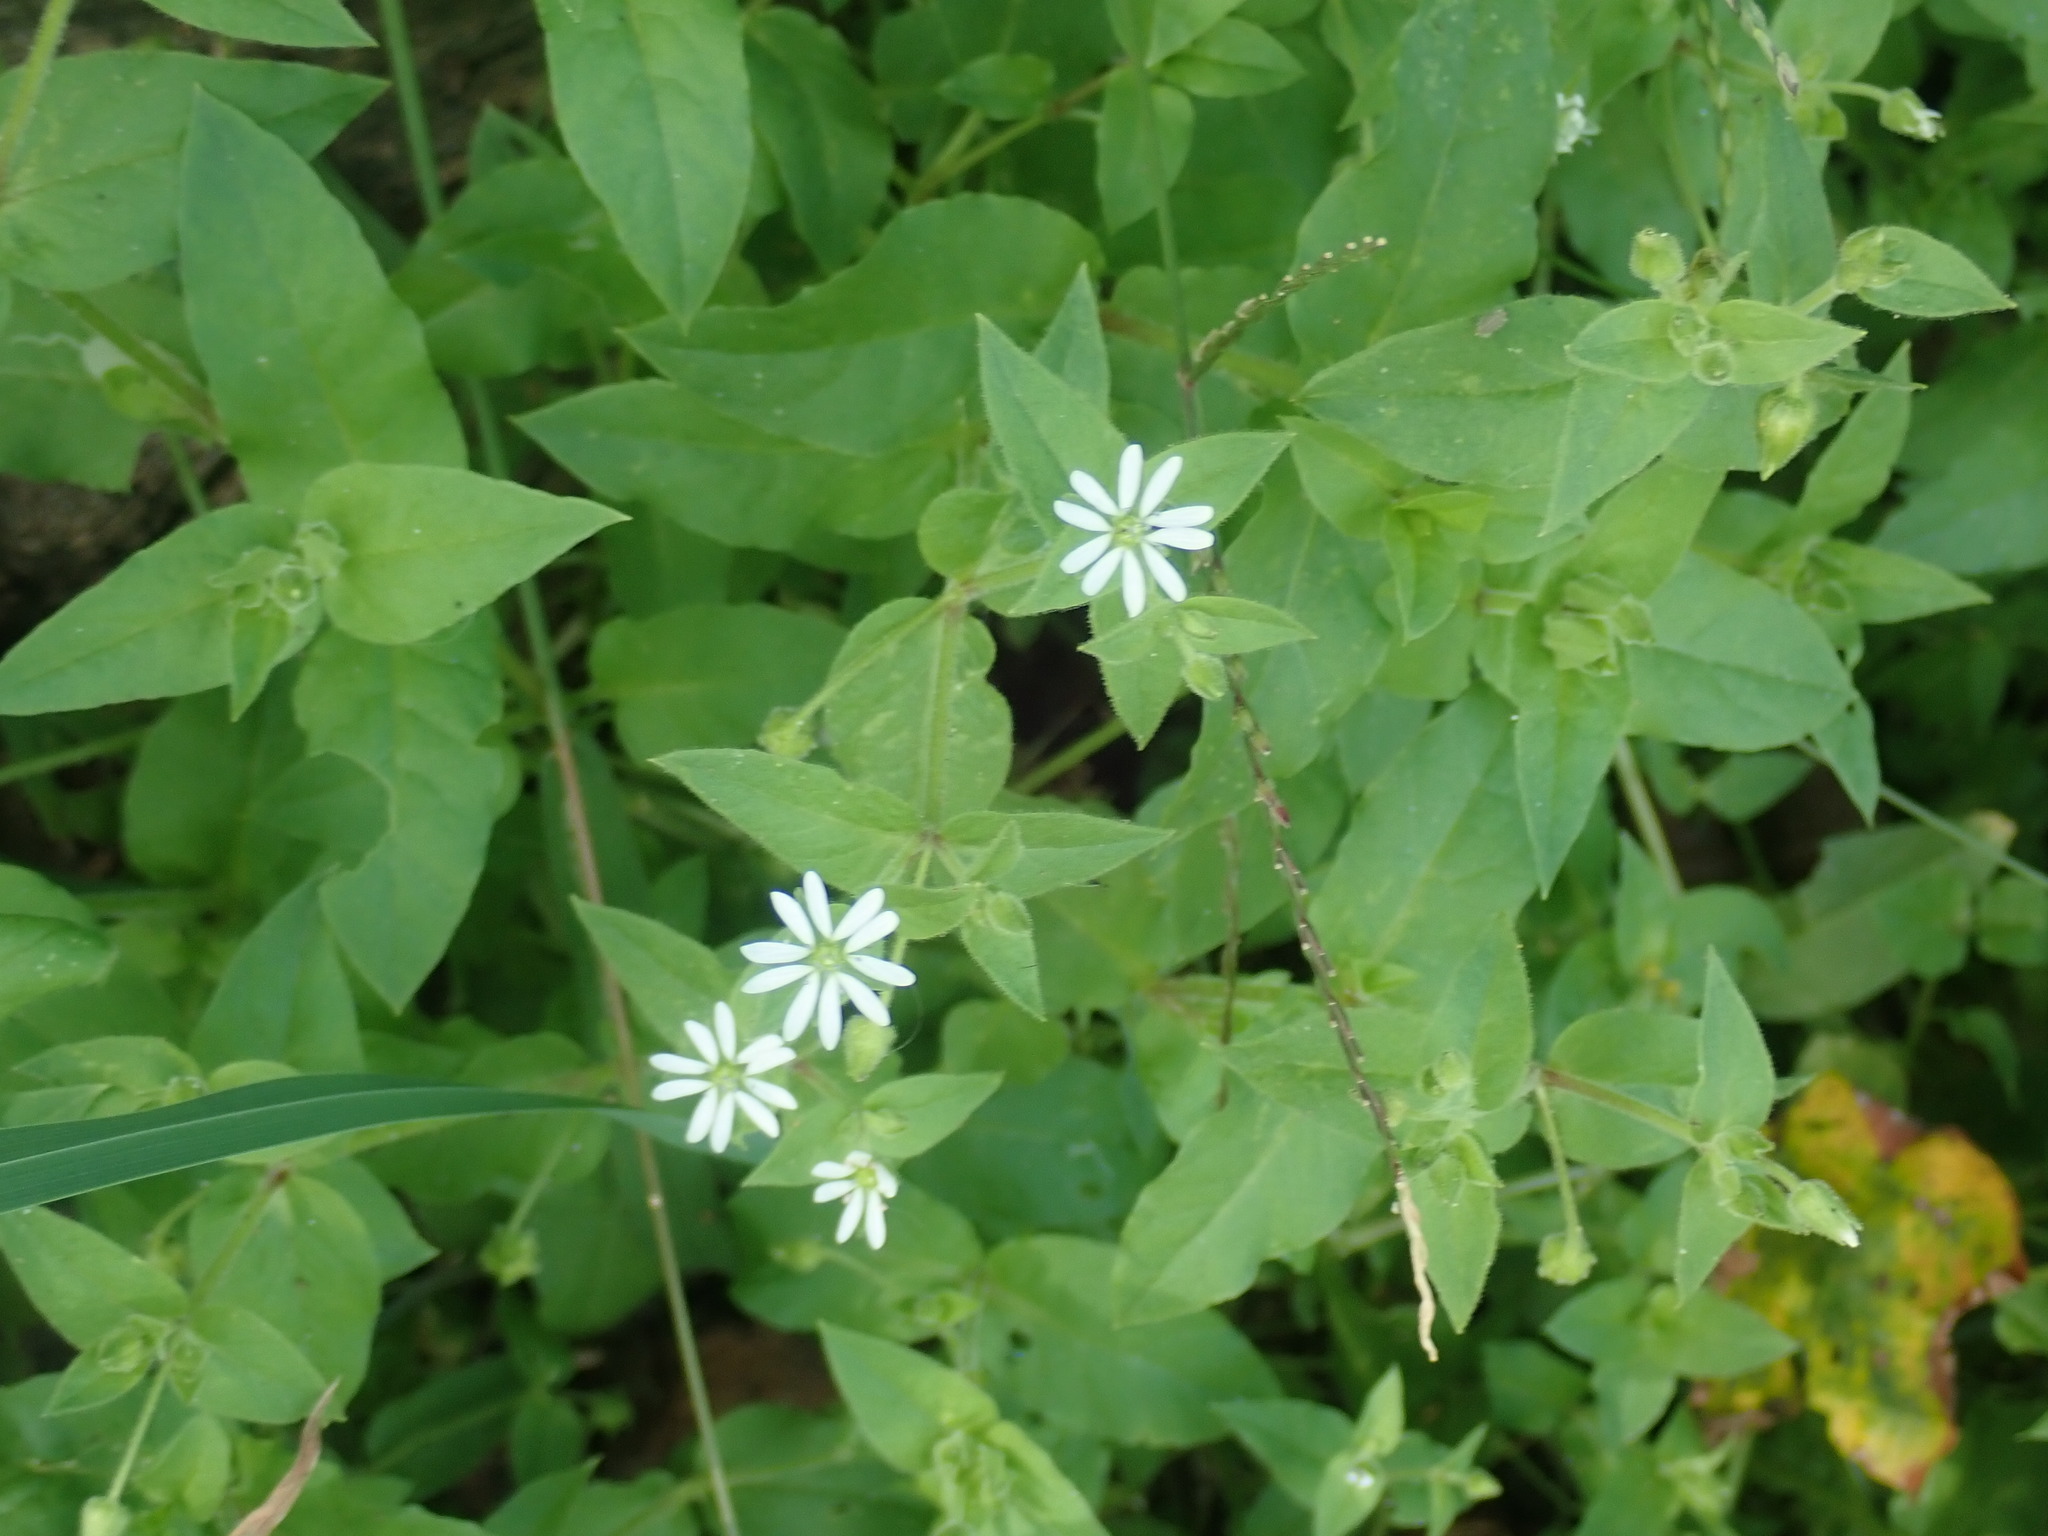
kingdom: Plantae
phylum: Tracheophyta
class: Magnoliopsida
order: Caryophyllales
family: Caryophyllaceae
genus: Stellaria
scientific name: Stellaria aquatica
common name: Water chickweed
